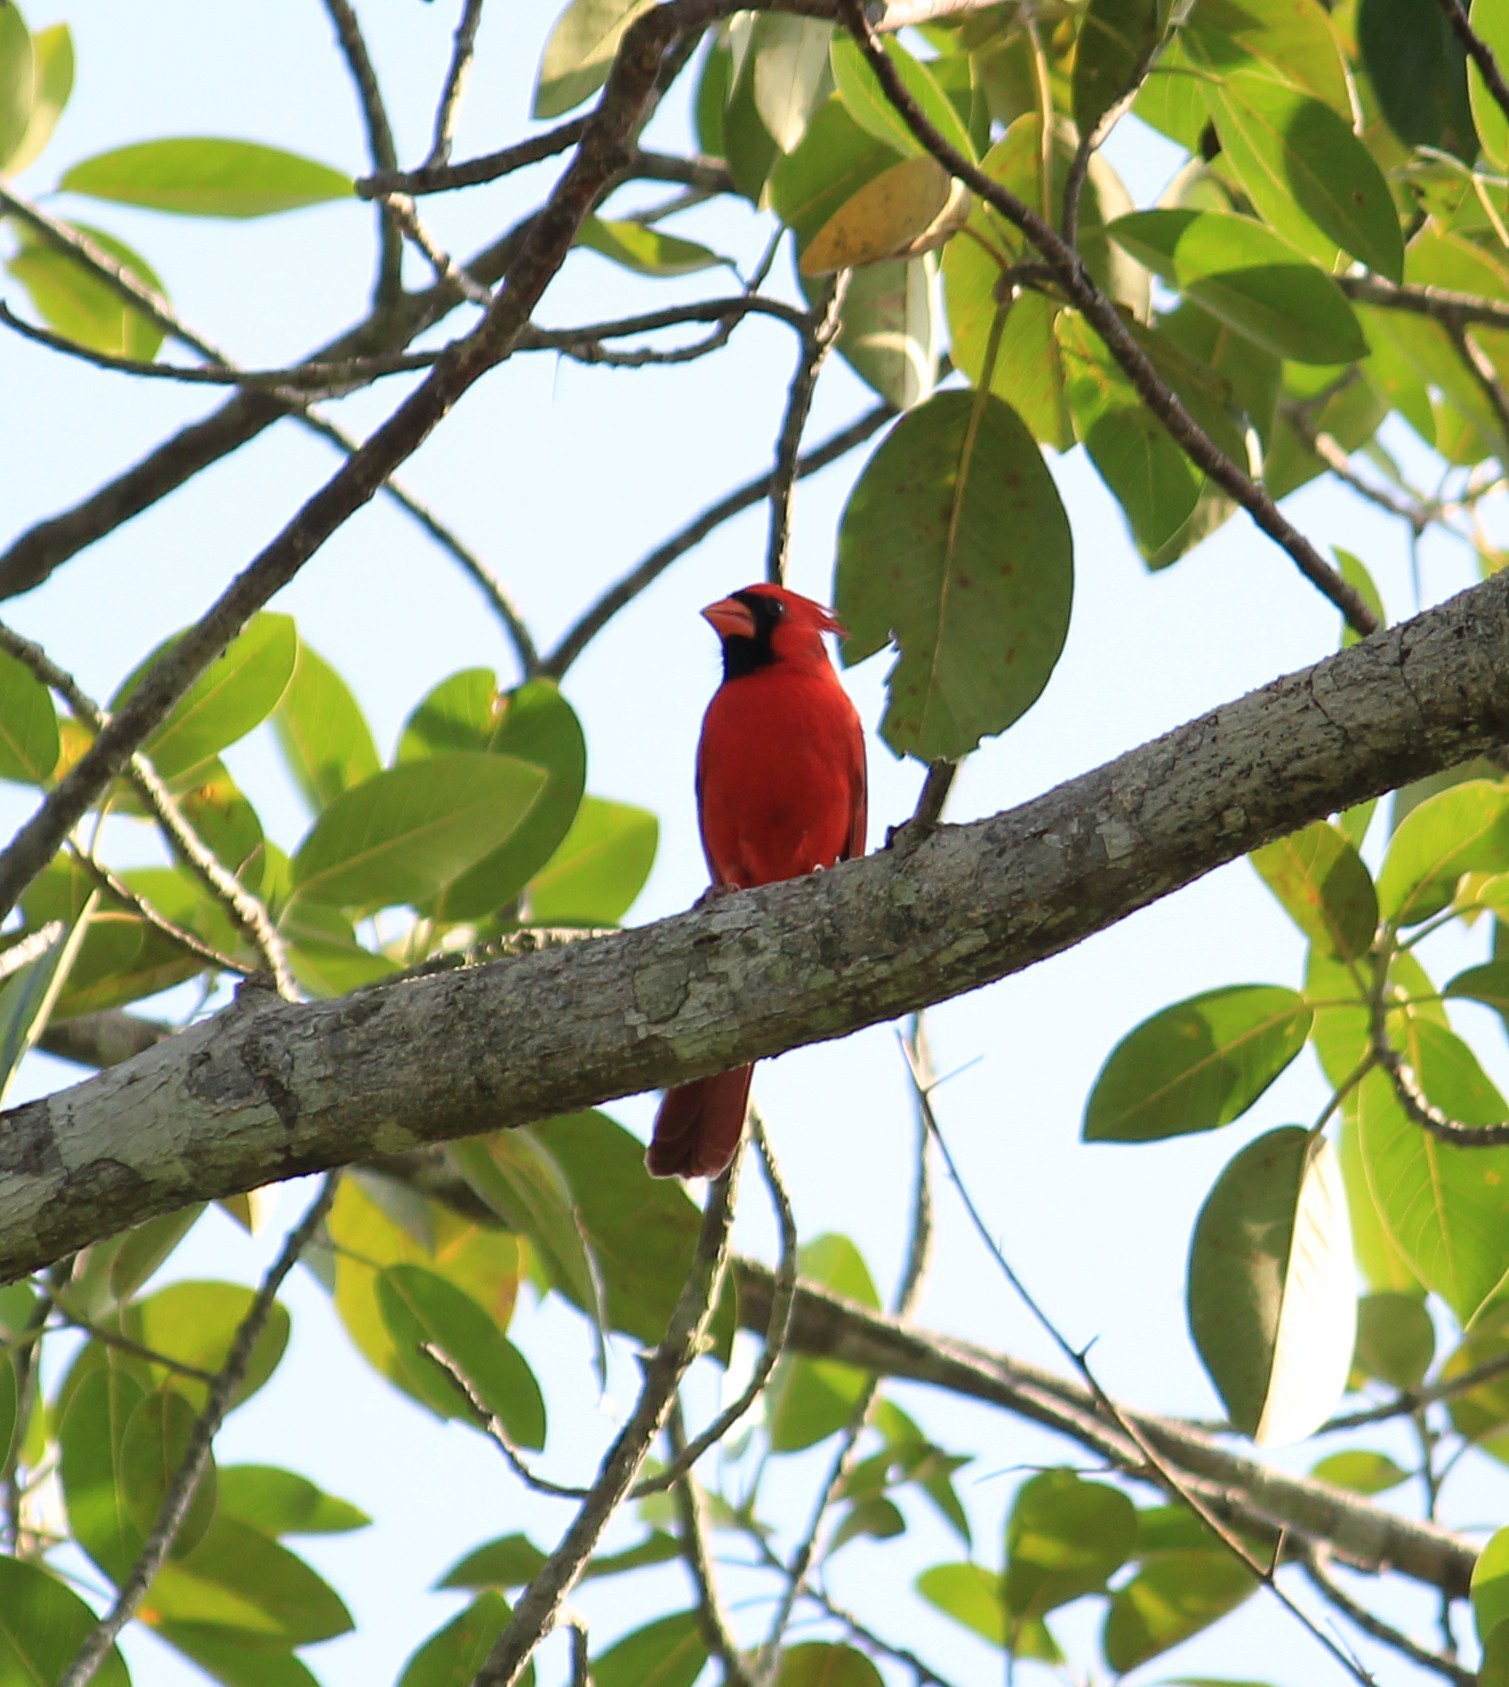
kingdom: Animalia
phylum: Chordata
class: Aves
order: Passeriformes
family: Cardinalidae
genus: Cardinalis
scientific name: Cardinalis cardinalis
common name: Northern cardinal
